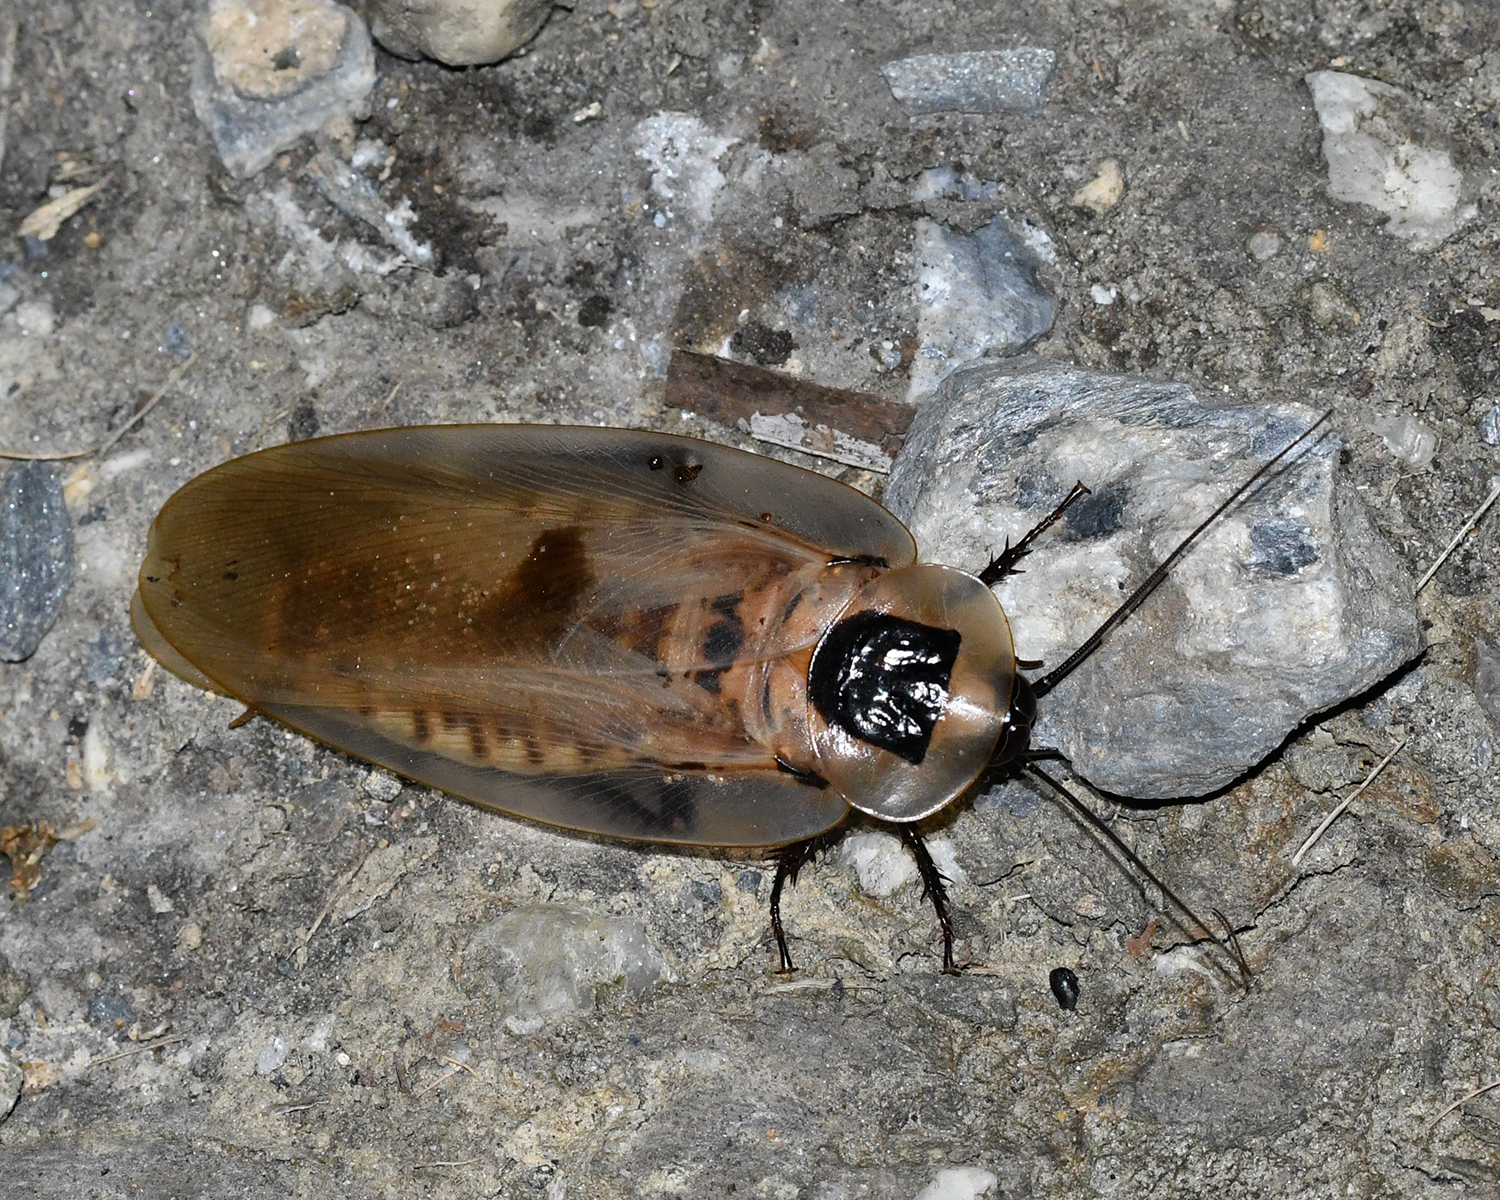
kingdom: Animalia
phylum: Arthropoda
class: Insecta
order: Blattodea
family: Blaberidae
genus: Blaberus
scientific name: Blaberus giganteus
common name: Giant cave cockroach
